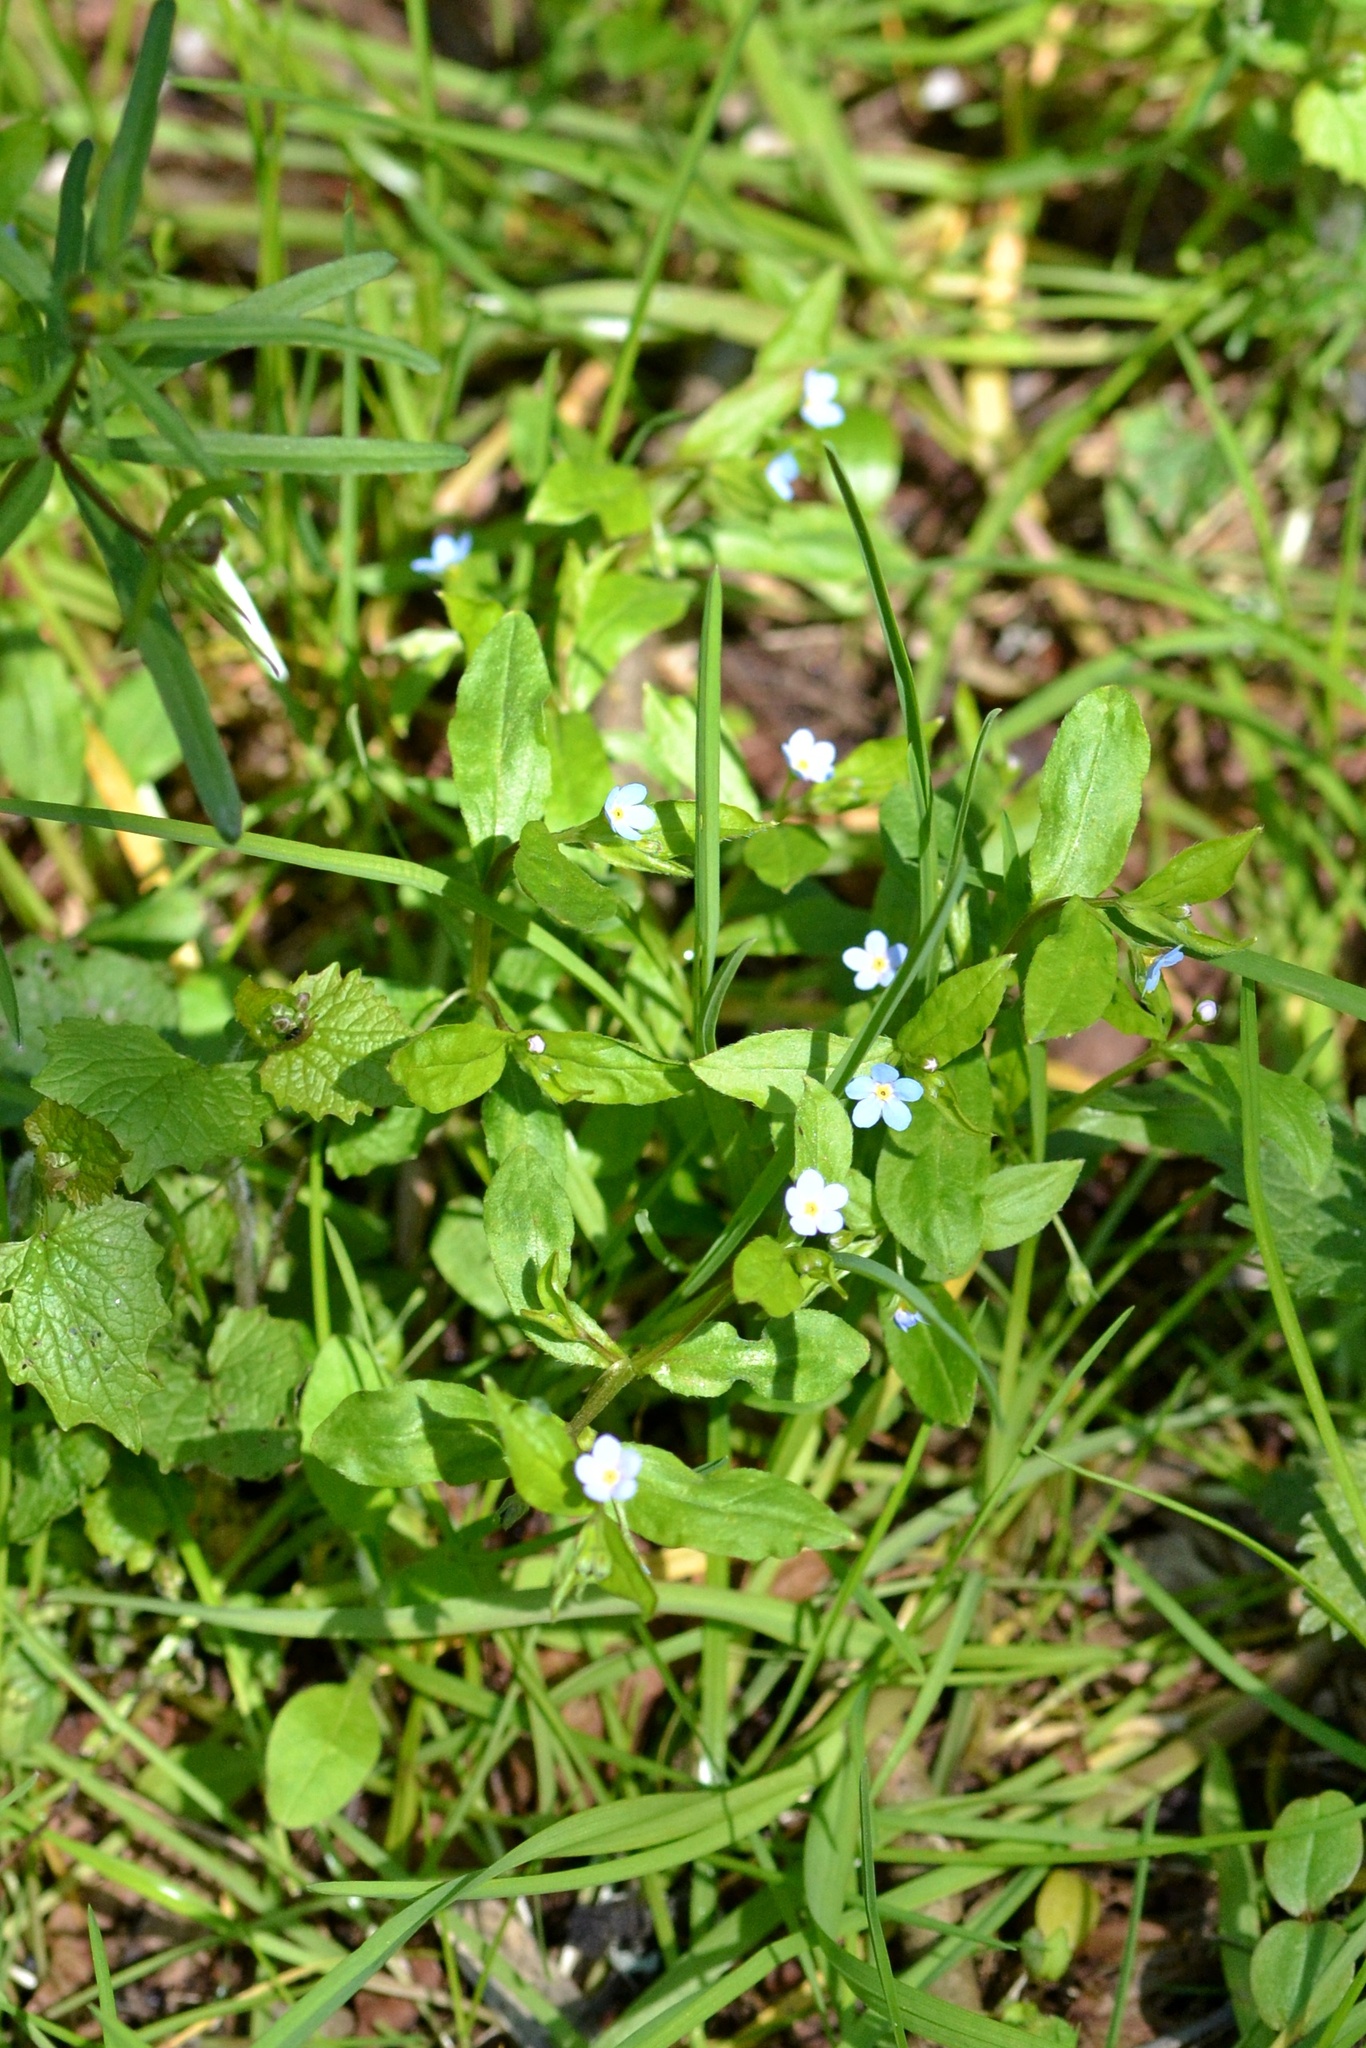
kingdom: Plantae
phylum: Tracheophyta
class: Magnoliopsida
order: Boraginales
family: Boraginaceae
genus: Memoremea
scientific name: Memoremea scorpioides
